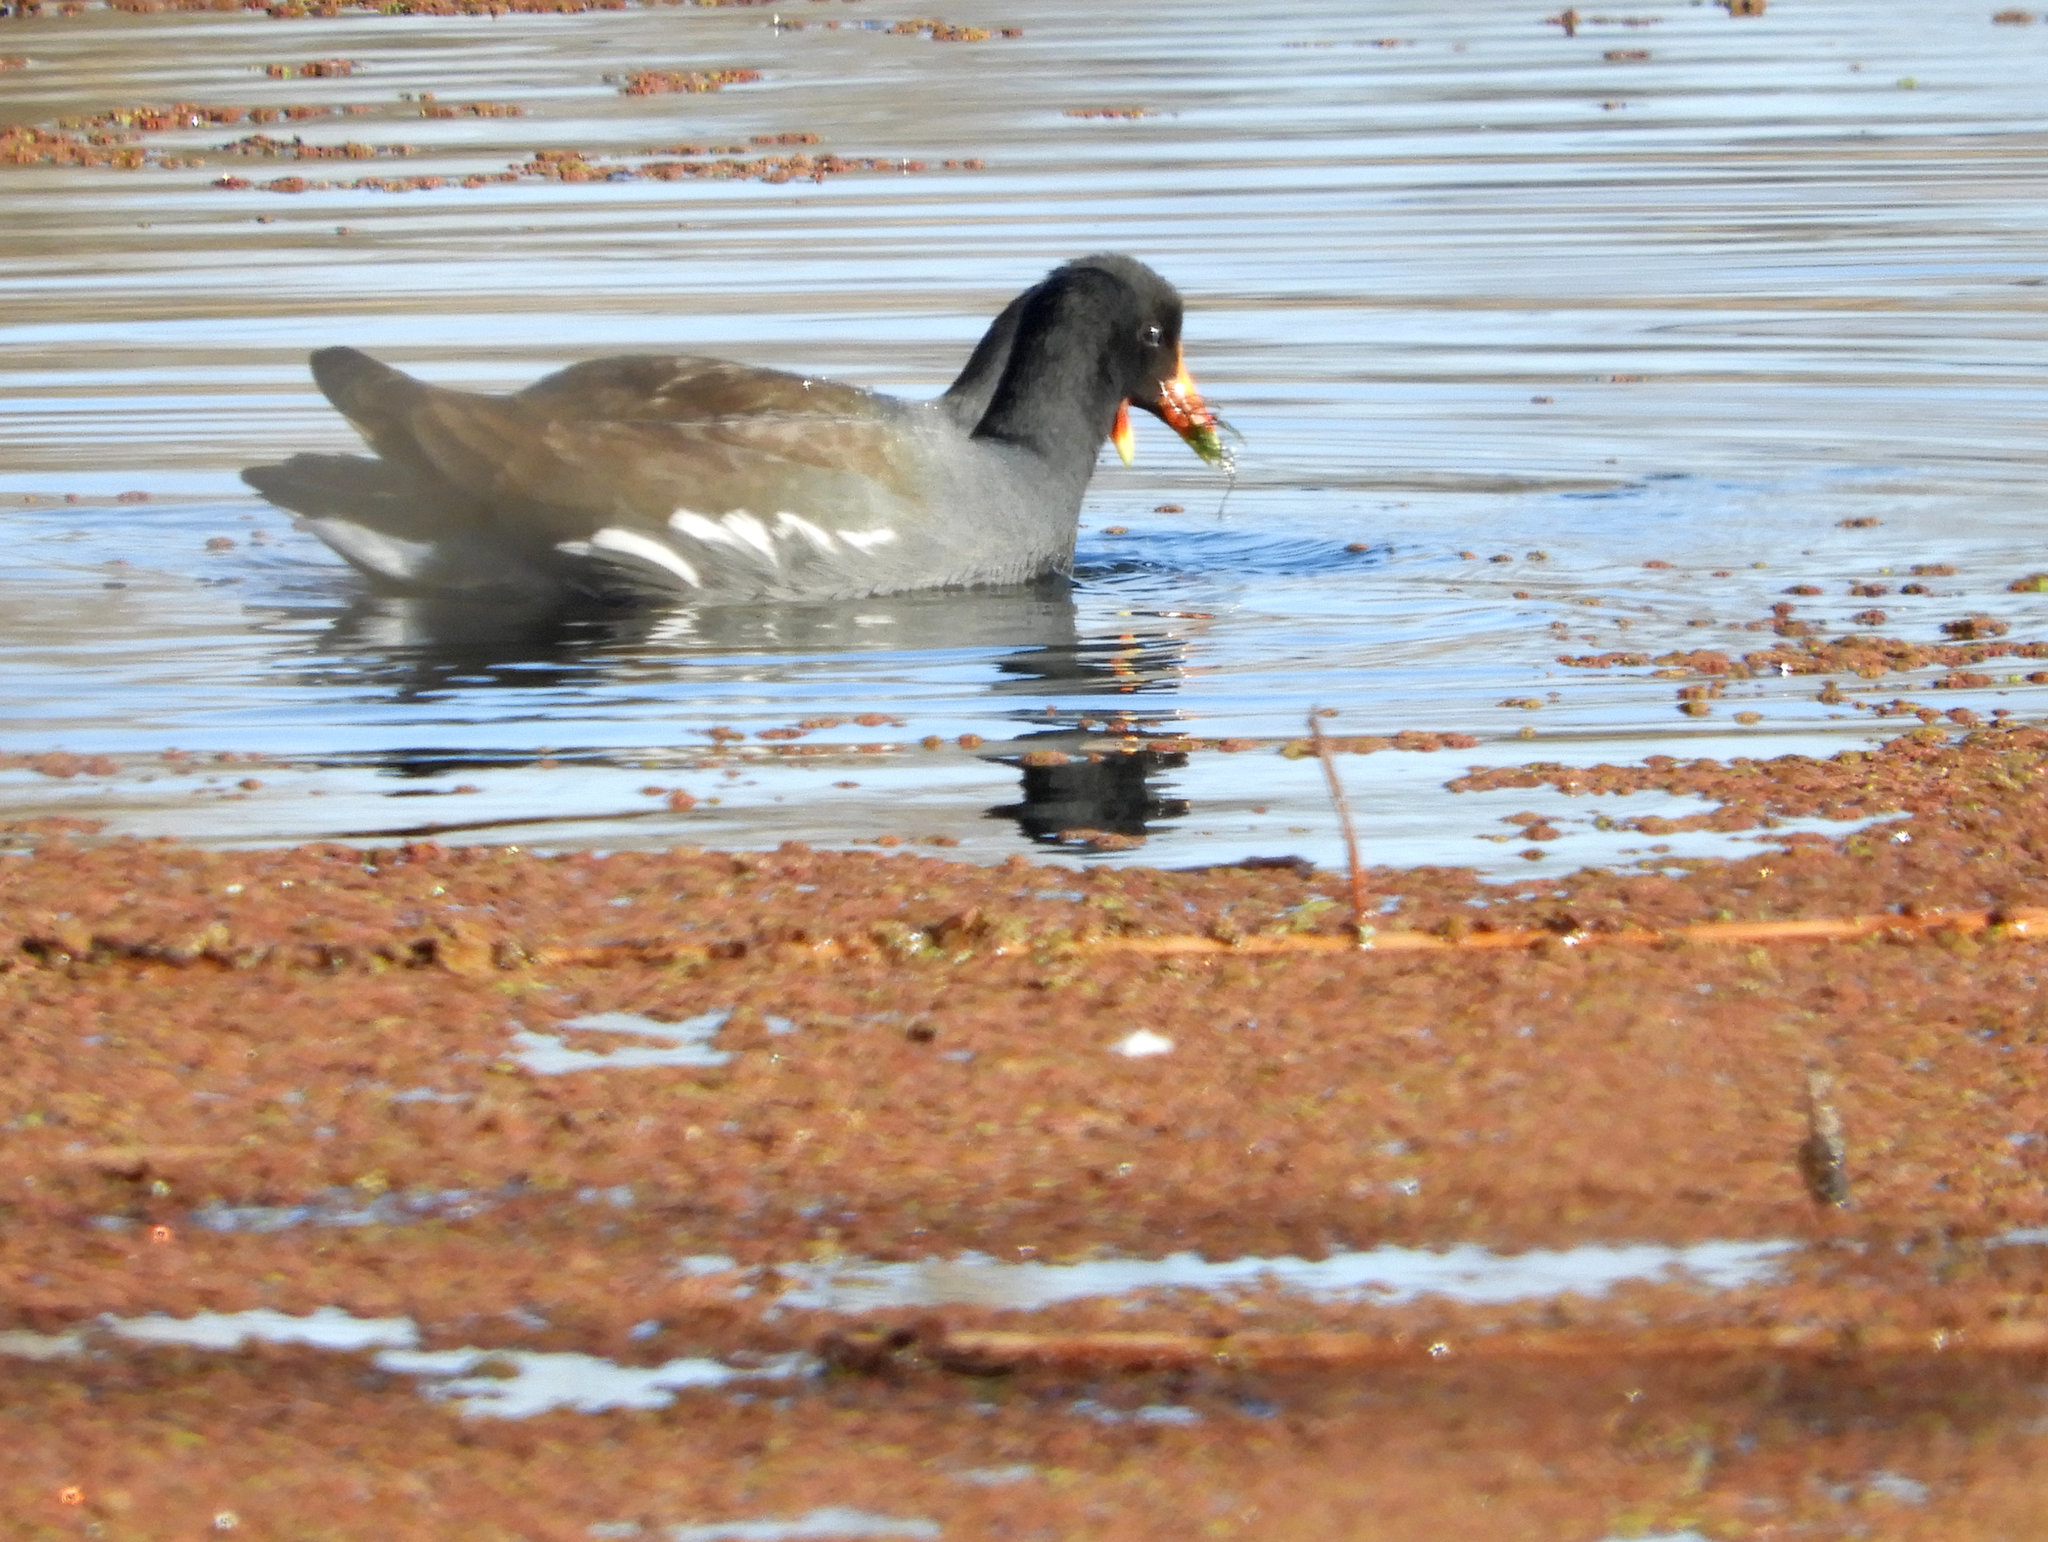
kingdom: Animalia
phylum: Chordata
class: Aves
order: Gruiformes
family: Rallidae
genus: Gallinula
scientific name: Gallinula chloropus
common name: Common moorhen
